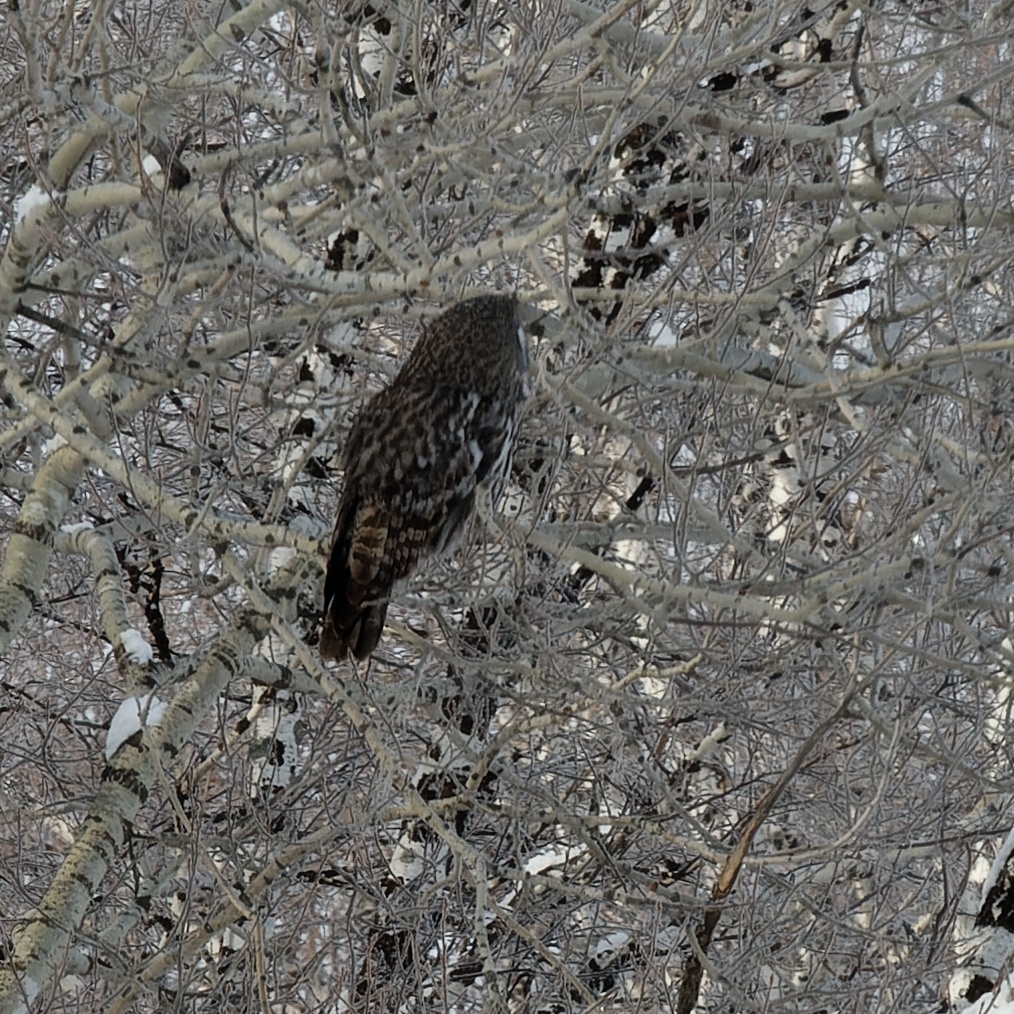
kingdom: Animalia
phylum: Chordata
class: Aves
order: Strigiformes
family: Strigidae
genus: Strix
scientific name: Strix nebulosa
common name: Great grey owl
